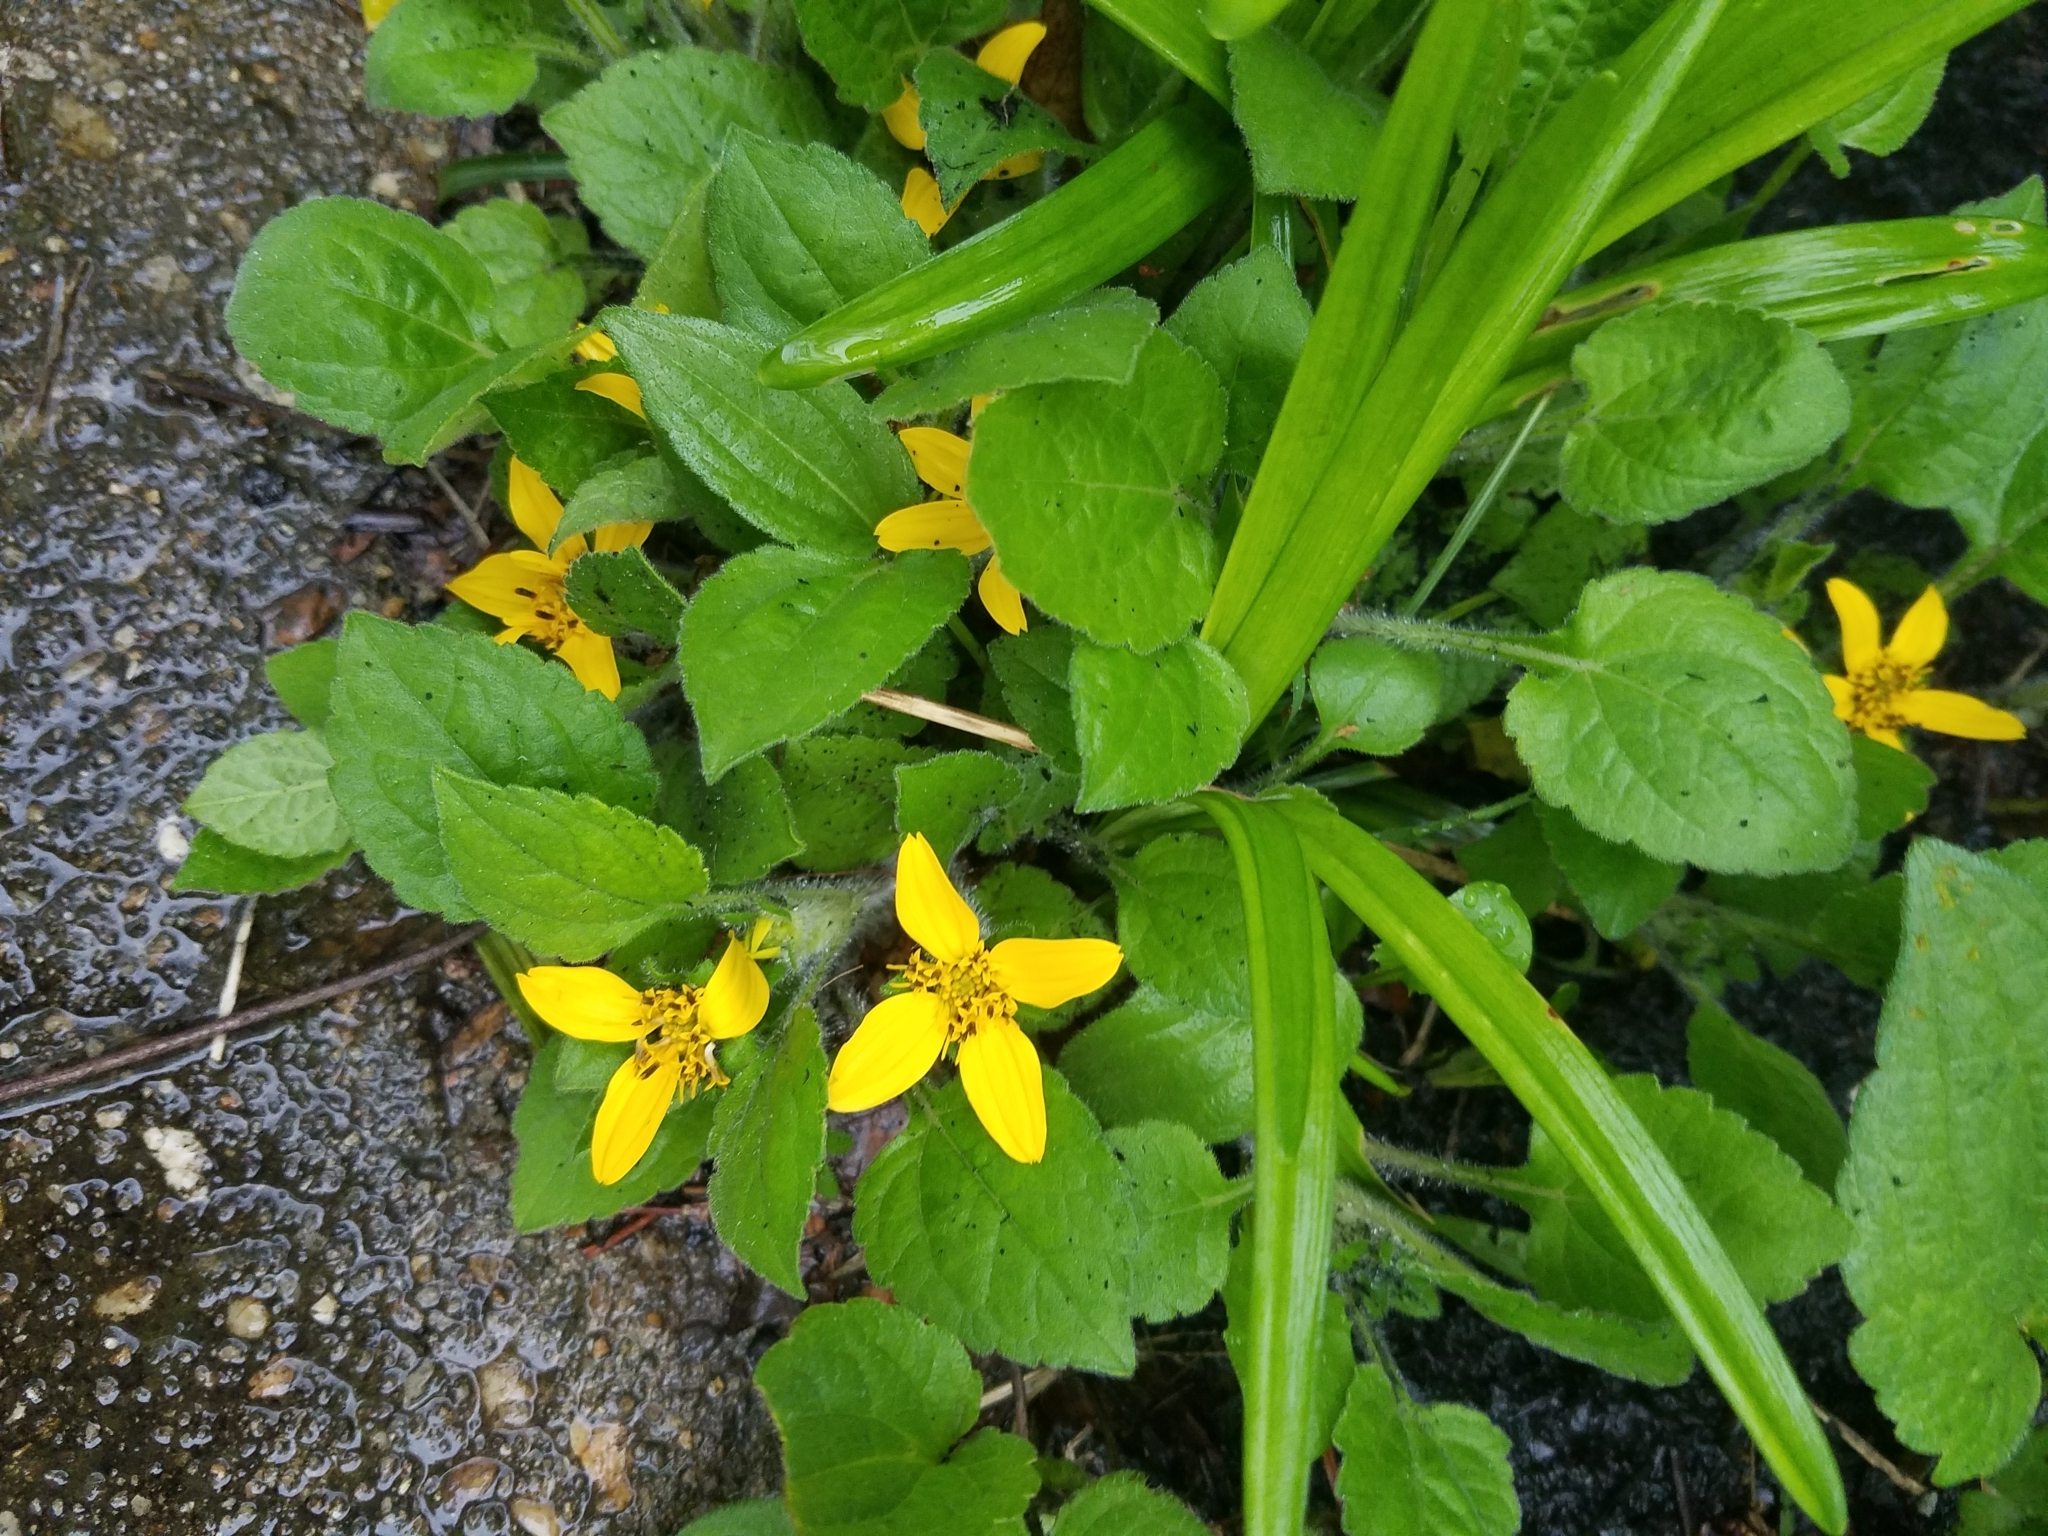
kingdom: Plantae
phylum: Tracheophyta
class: Magnoliopsida
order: Asterales
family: Asteraceae
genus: Chrysogonum
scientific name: Chrysogonum virginianum
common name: Golden-knee
